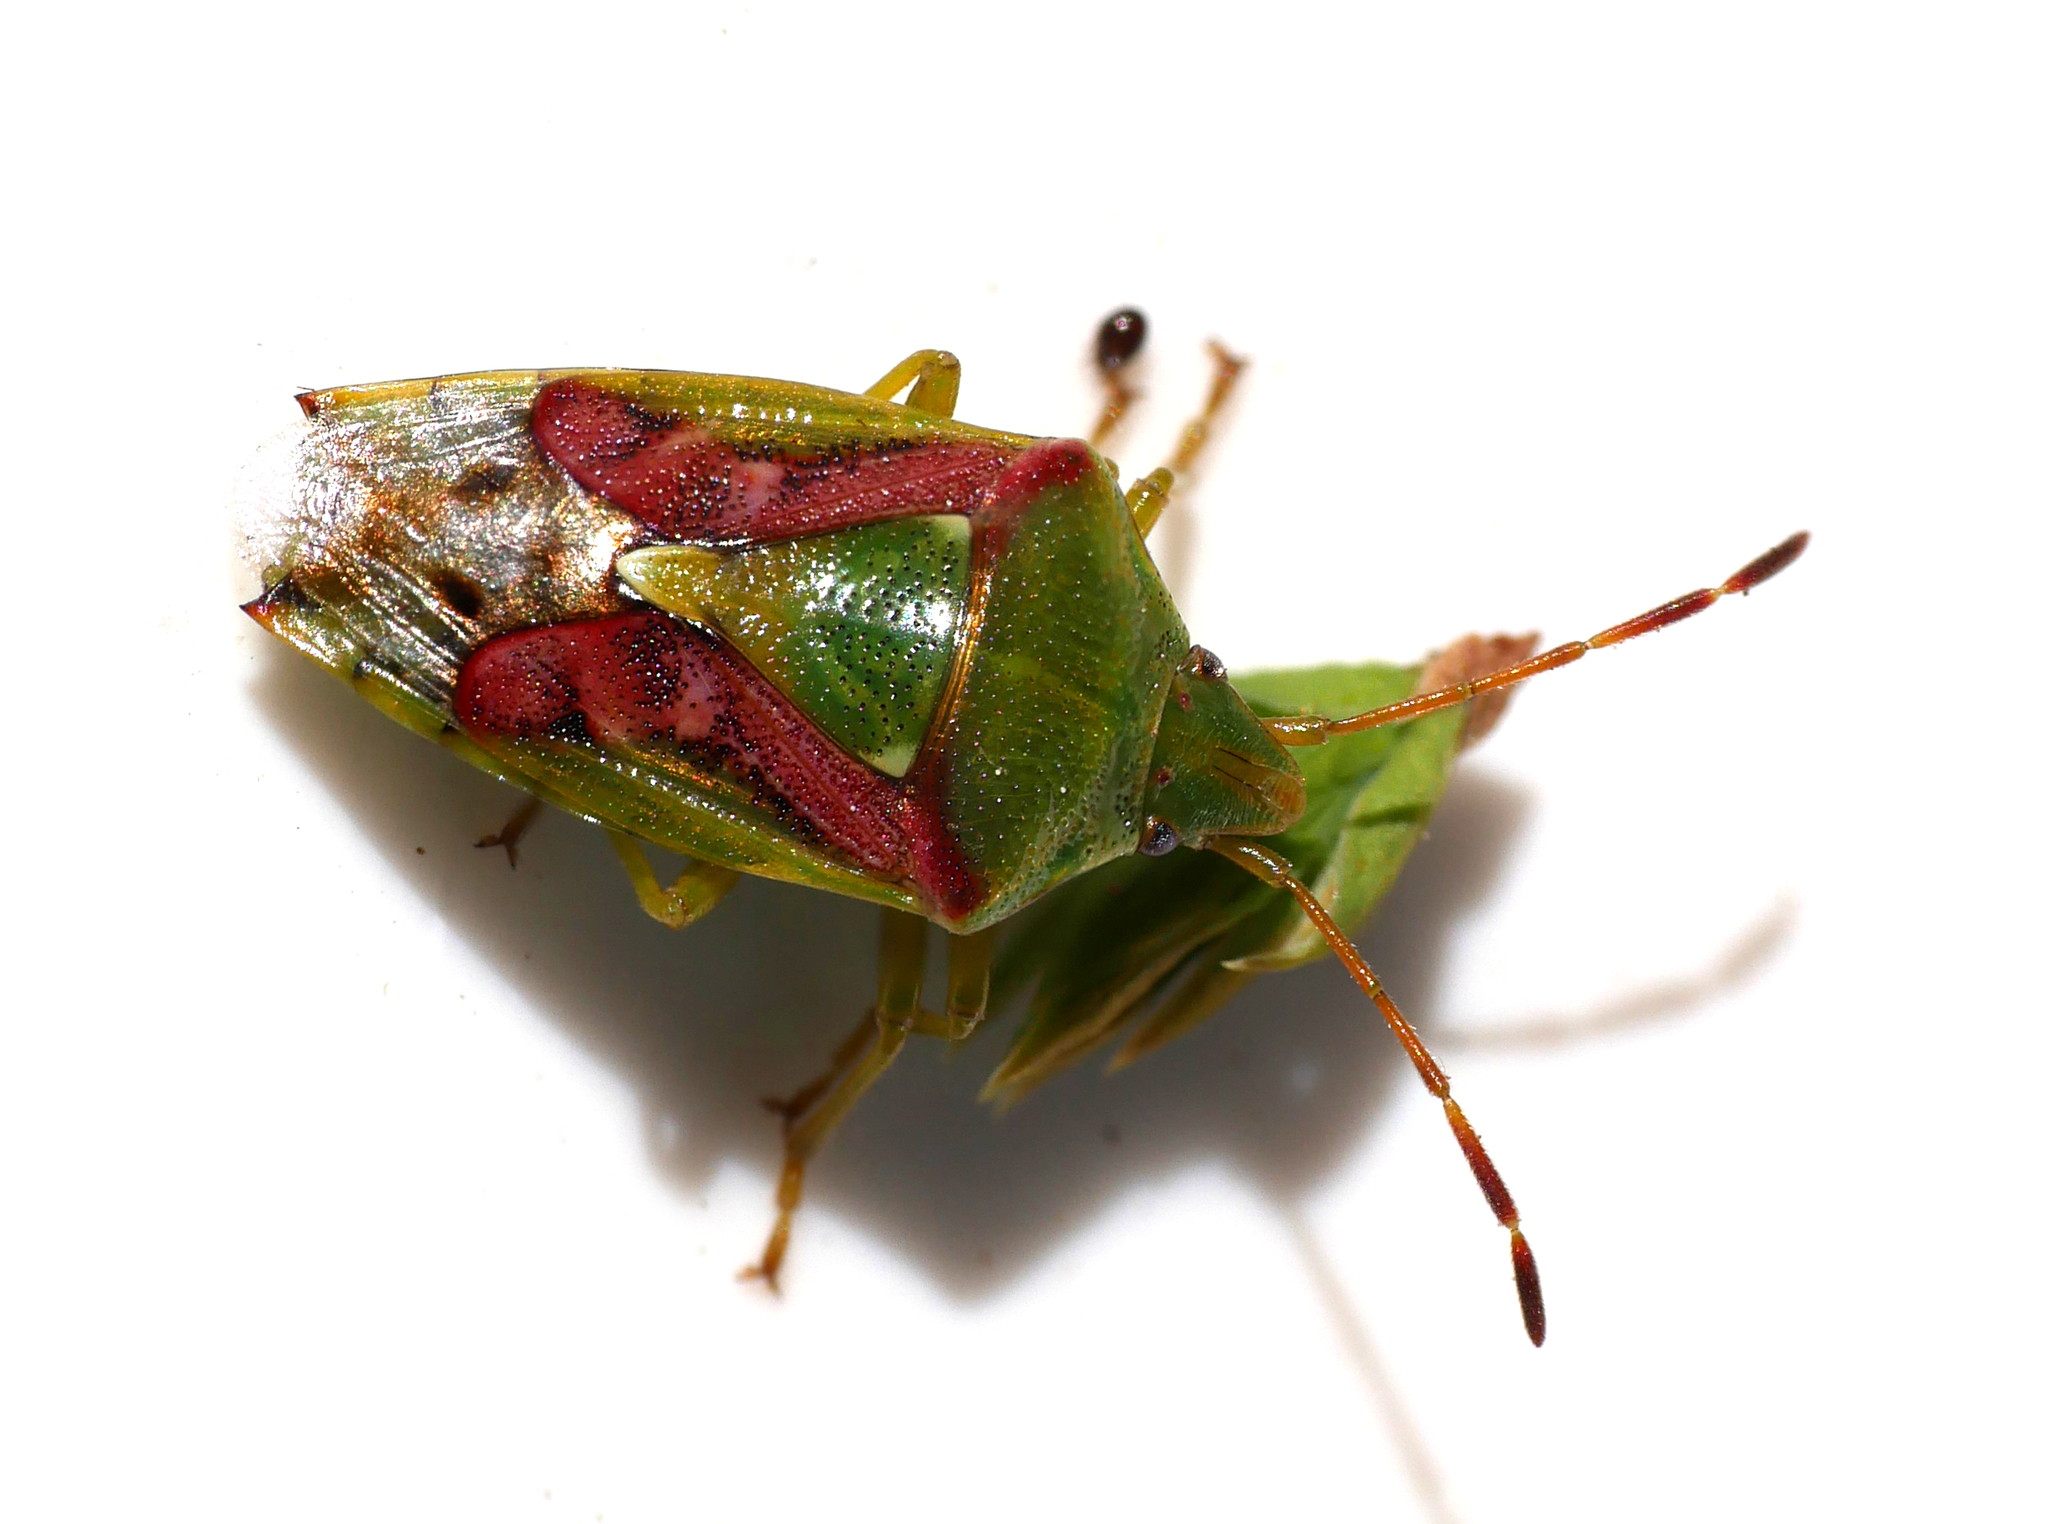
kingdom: Animalia
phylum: Arthropoda
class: Insecta
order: Hemiptera
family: Acanthosomatidae
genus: Cyphostethus
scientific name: Cyphostethus tristriatus
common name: Juniper shieldbug
